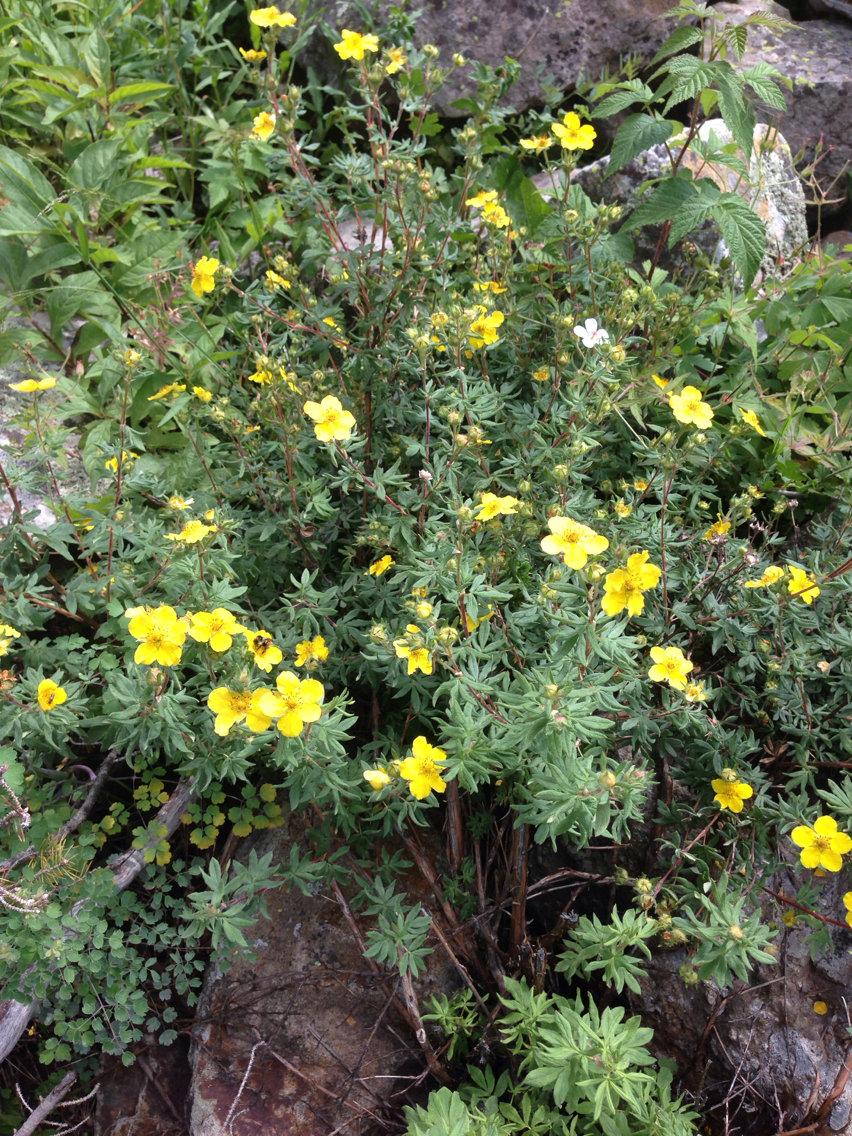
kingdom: Plantae
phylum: Tracheophyta
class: Magnoliopsida
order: Rosales
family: Rosaceae
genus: Dasiphora
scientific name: Dasiphora fruticosa
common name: Shrubby cinquefoil
